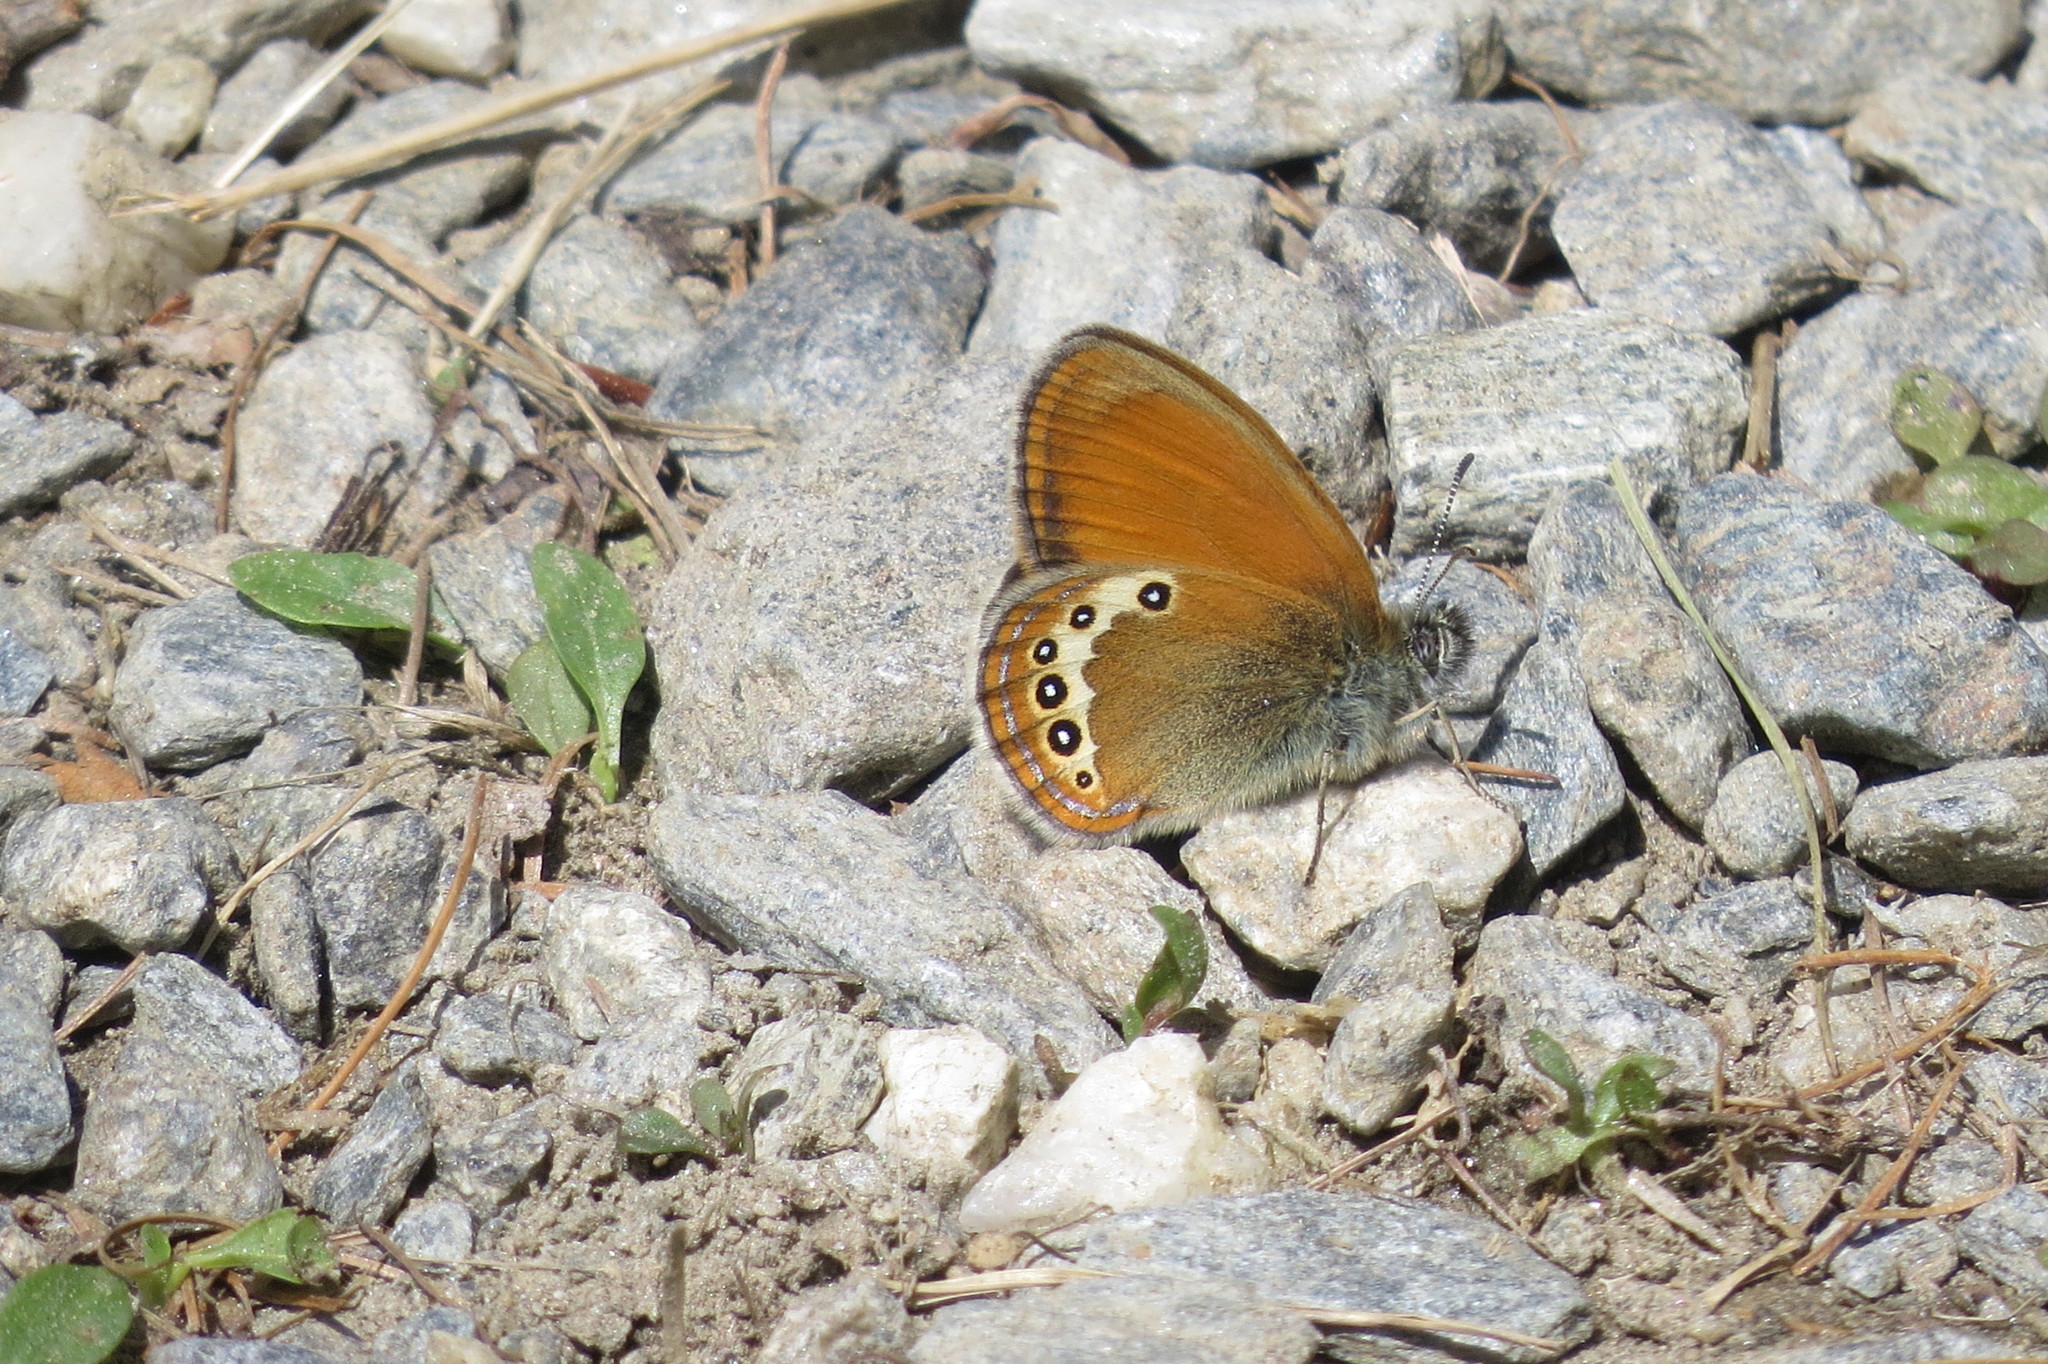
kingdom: Animalia
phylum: Arthropoda
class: Insecta
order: Lepidoptera
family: Nymphalidae
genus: Coenonympha
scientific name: Coenonympha
